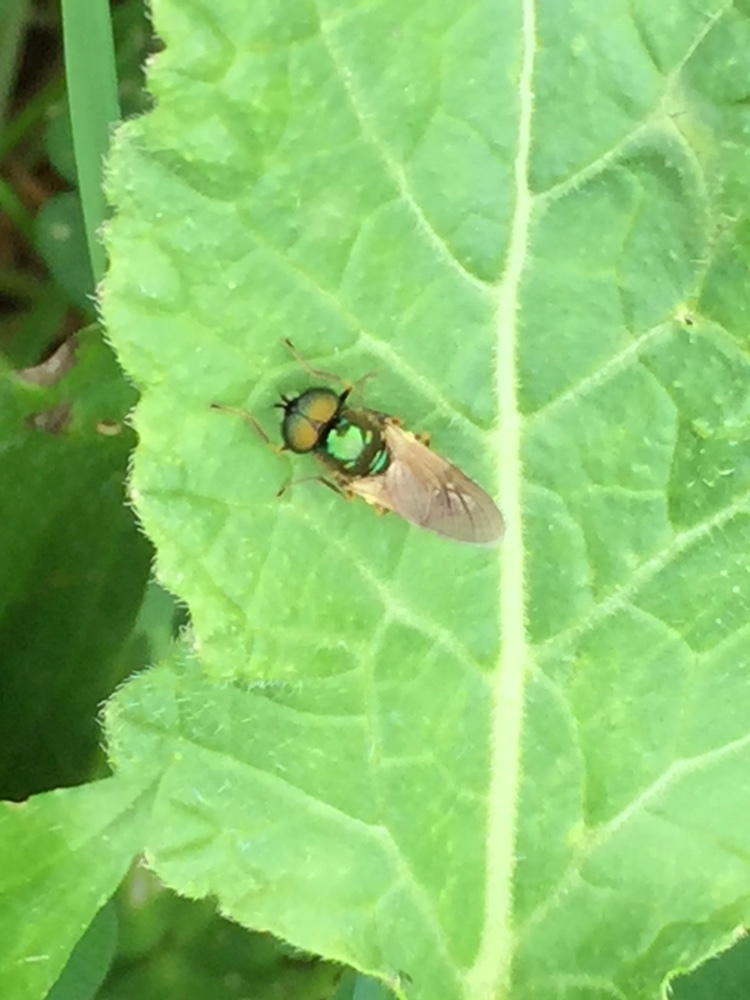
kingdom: Animalia
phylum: Arthropoda
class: Insecta
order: Diptera
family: Stratiomyidae
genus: Chloromyia
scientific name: Chloromyia formosa
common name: Soldier fly
